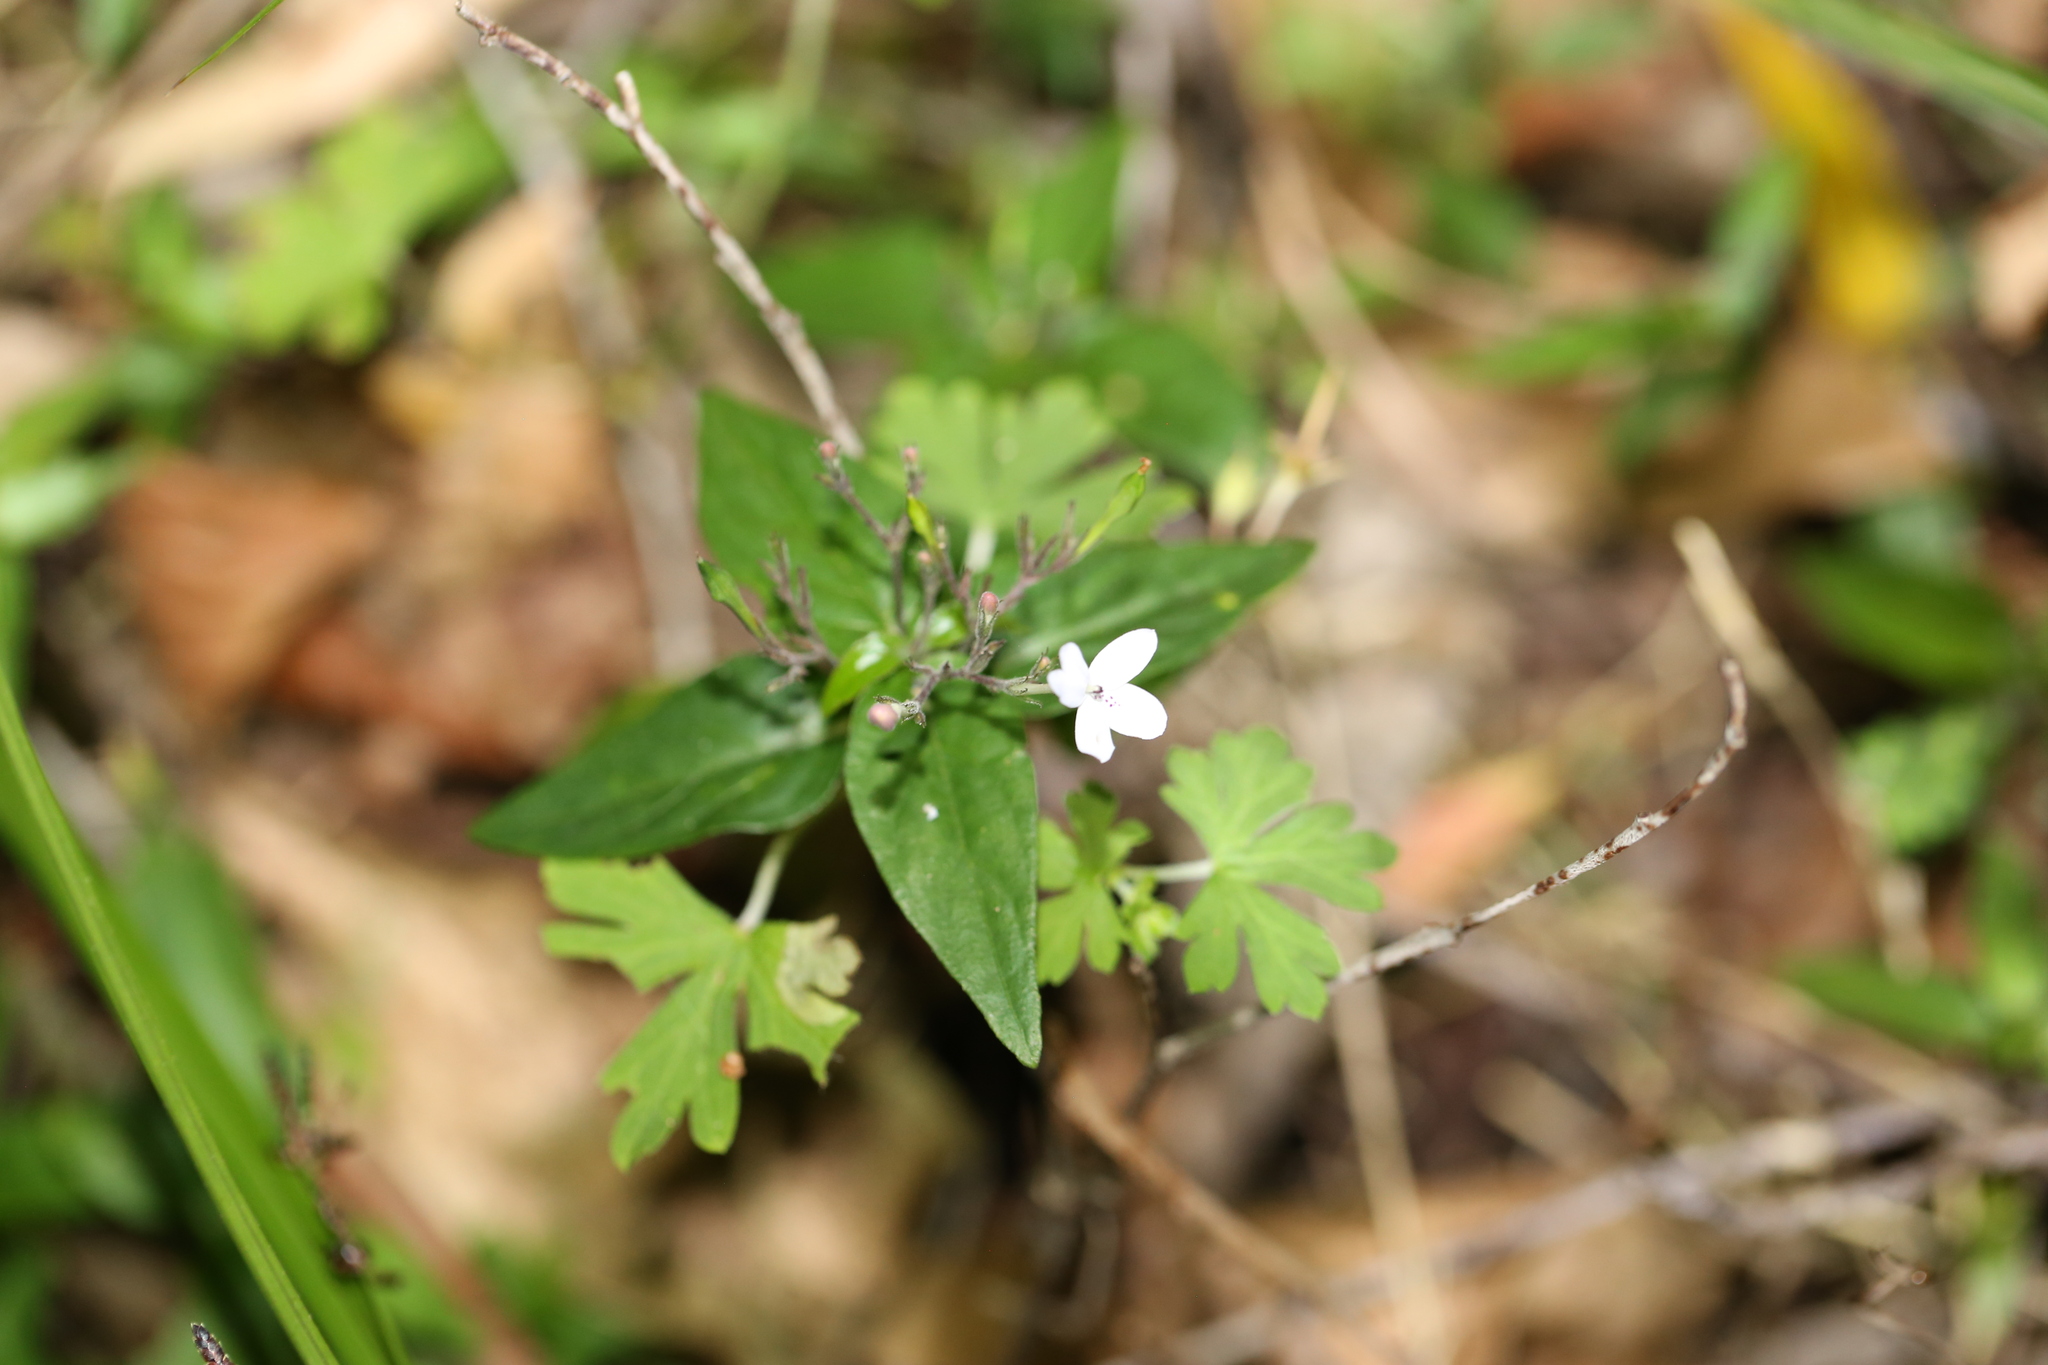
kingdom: Plantae
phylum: Tracheophyta
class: Magnoliopsida
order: Lamiales
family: Acanthaceae
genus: Pseuderanthemum
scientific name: Pseuderanthemum variabile
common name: Night and afternoon
